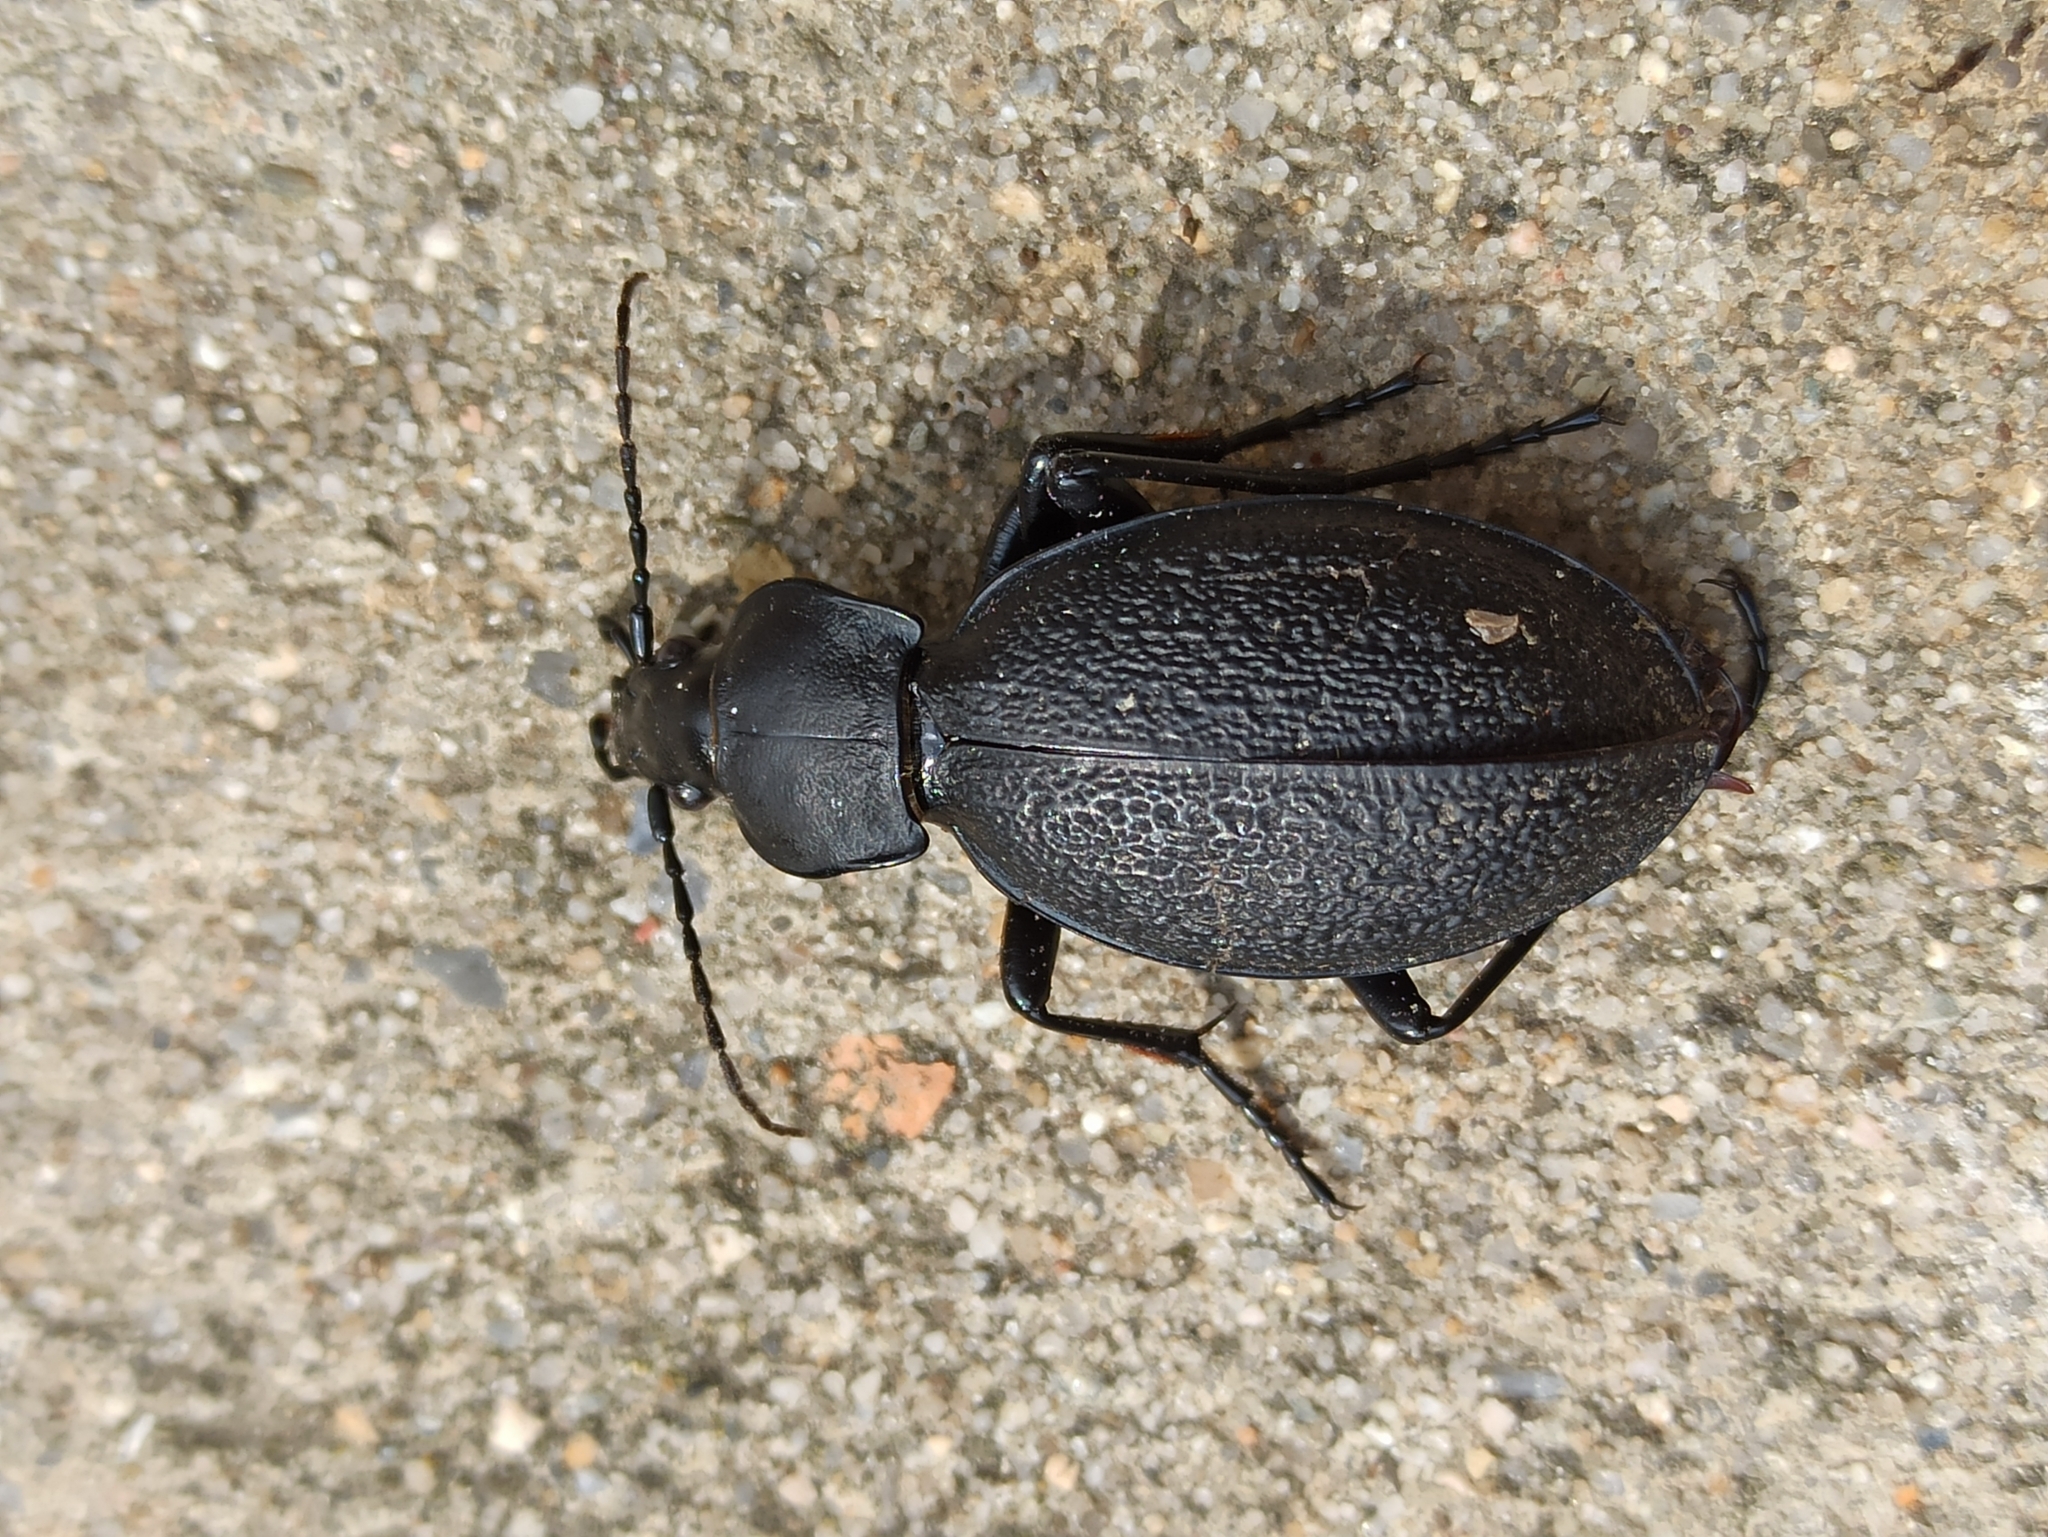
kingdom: Animalia
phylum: Arthropoda
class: Insecta
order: Coleoptera
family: Carabidae
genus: Carabus
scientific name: Carabus coriaceus
